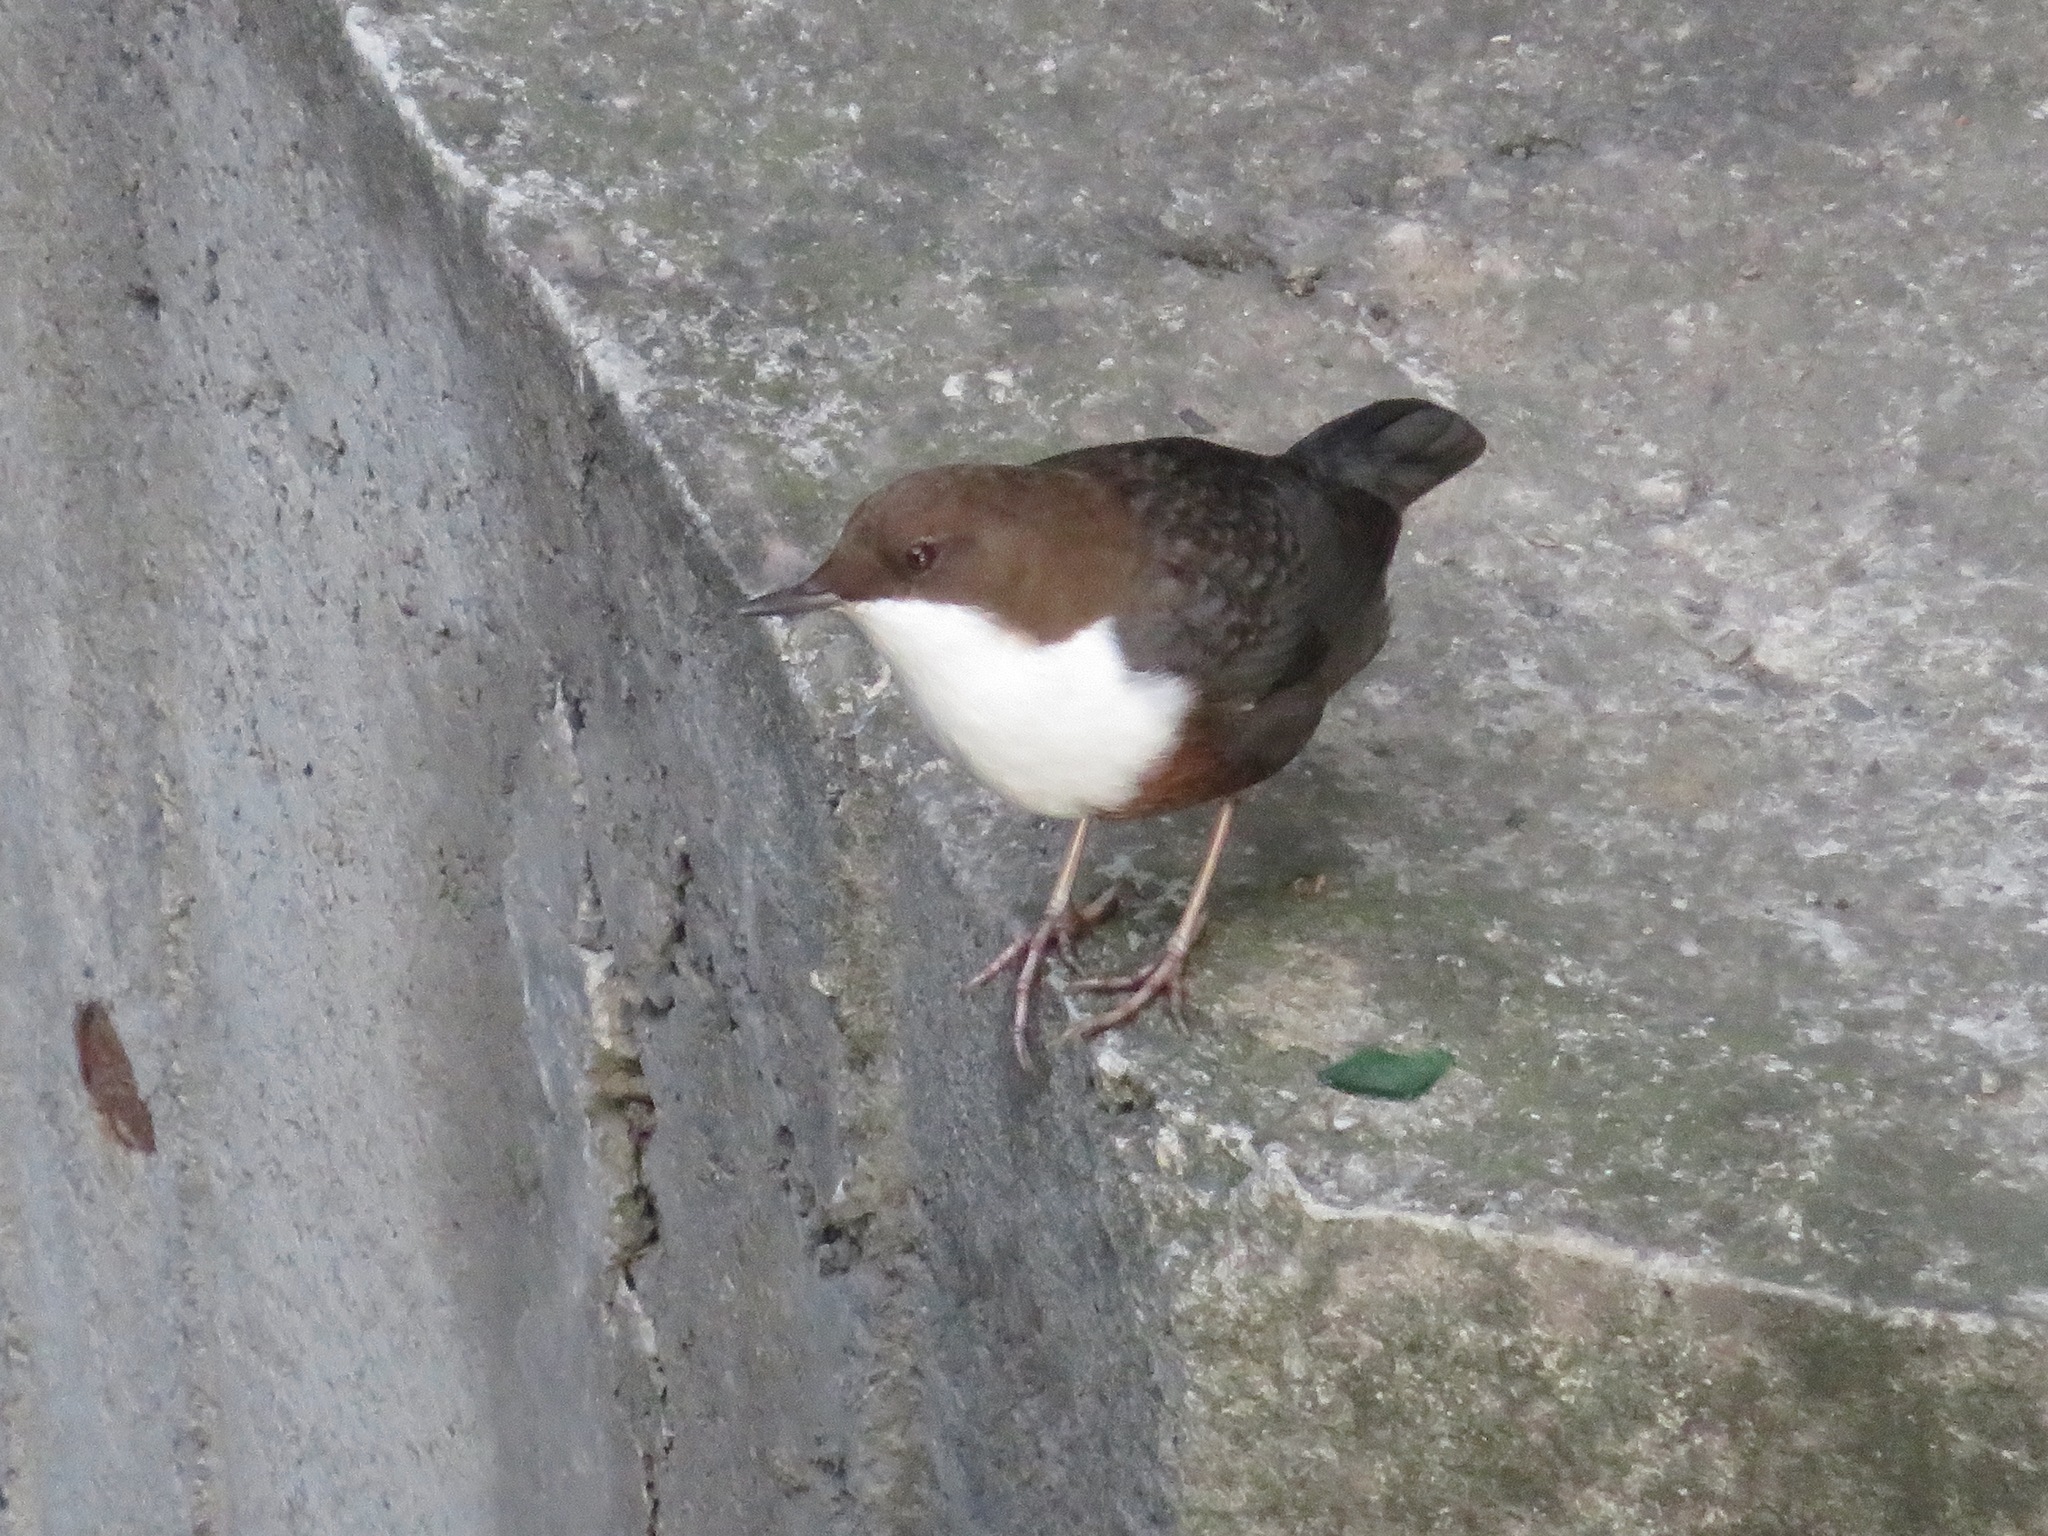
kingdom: Animalia
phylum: Chordata
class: Aves
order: Passeriformes
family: Cinclidae
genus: Cinclus
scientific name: Cinclus cinclus
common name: White-throated dipper
